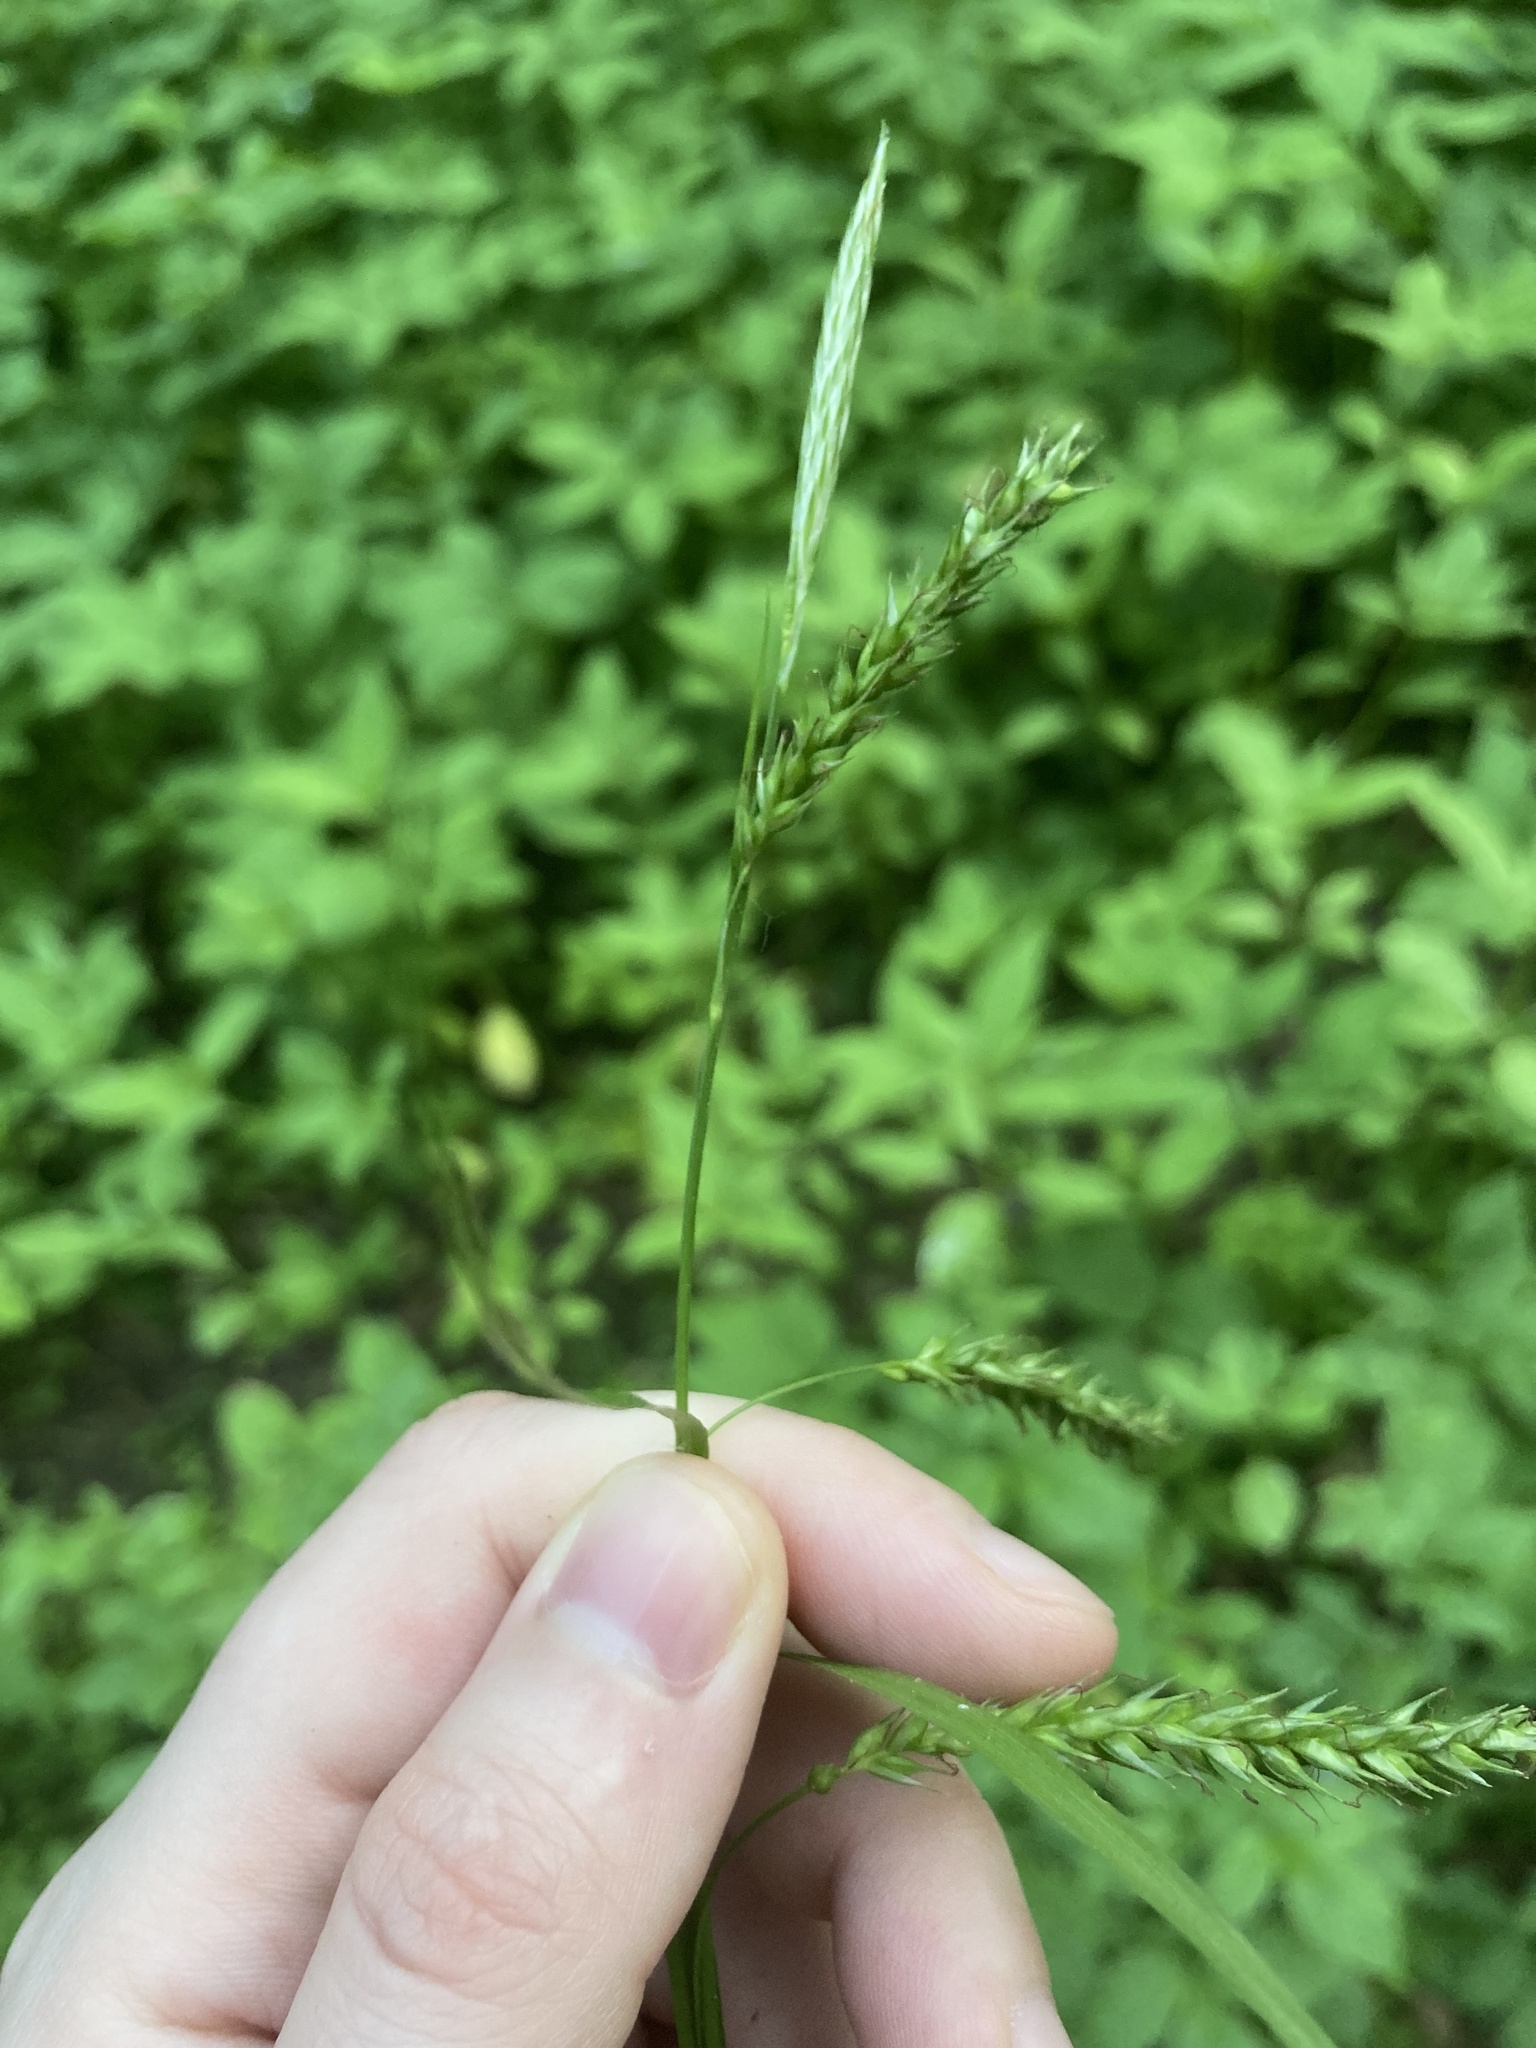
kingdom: Plantae
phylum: Tracheophyta
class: Liliopsida
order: Poales
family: Cyperaceae
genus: Carex
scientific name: Carex sylvatica
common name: Wood-sedge
